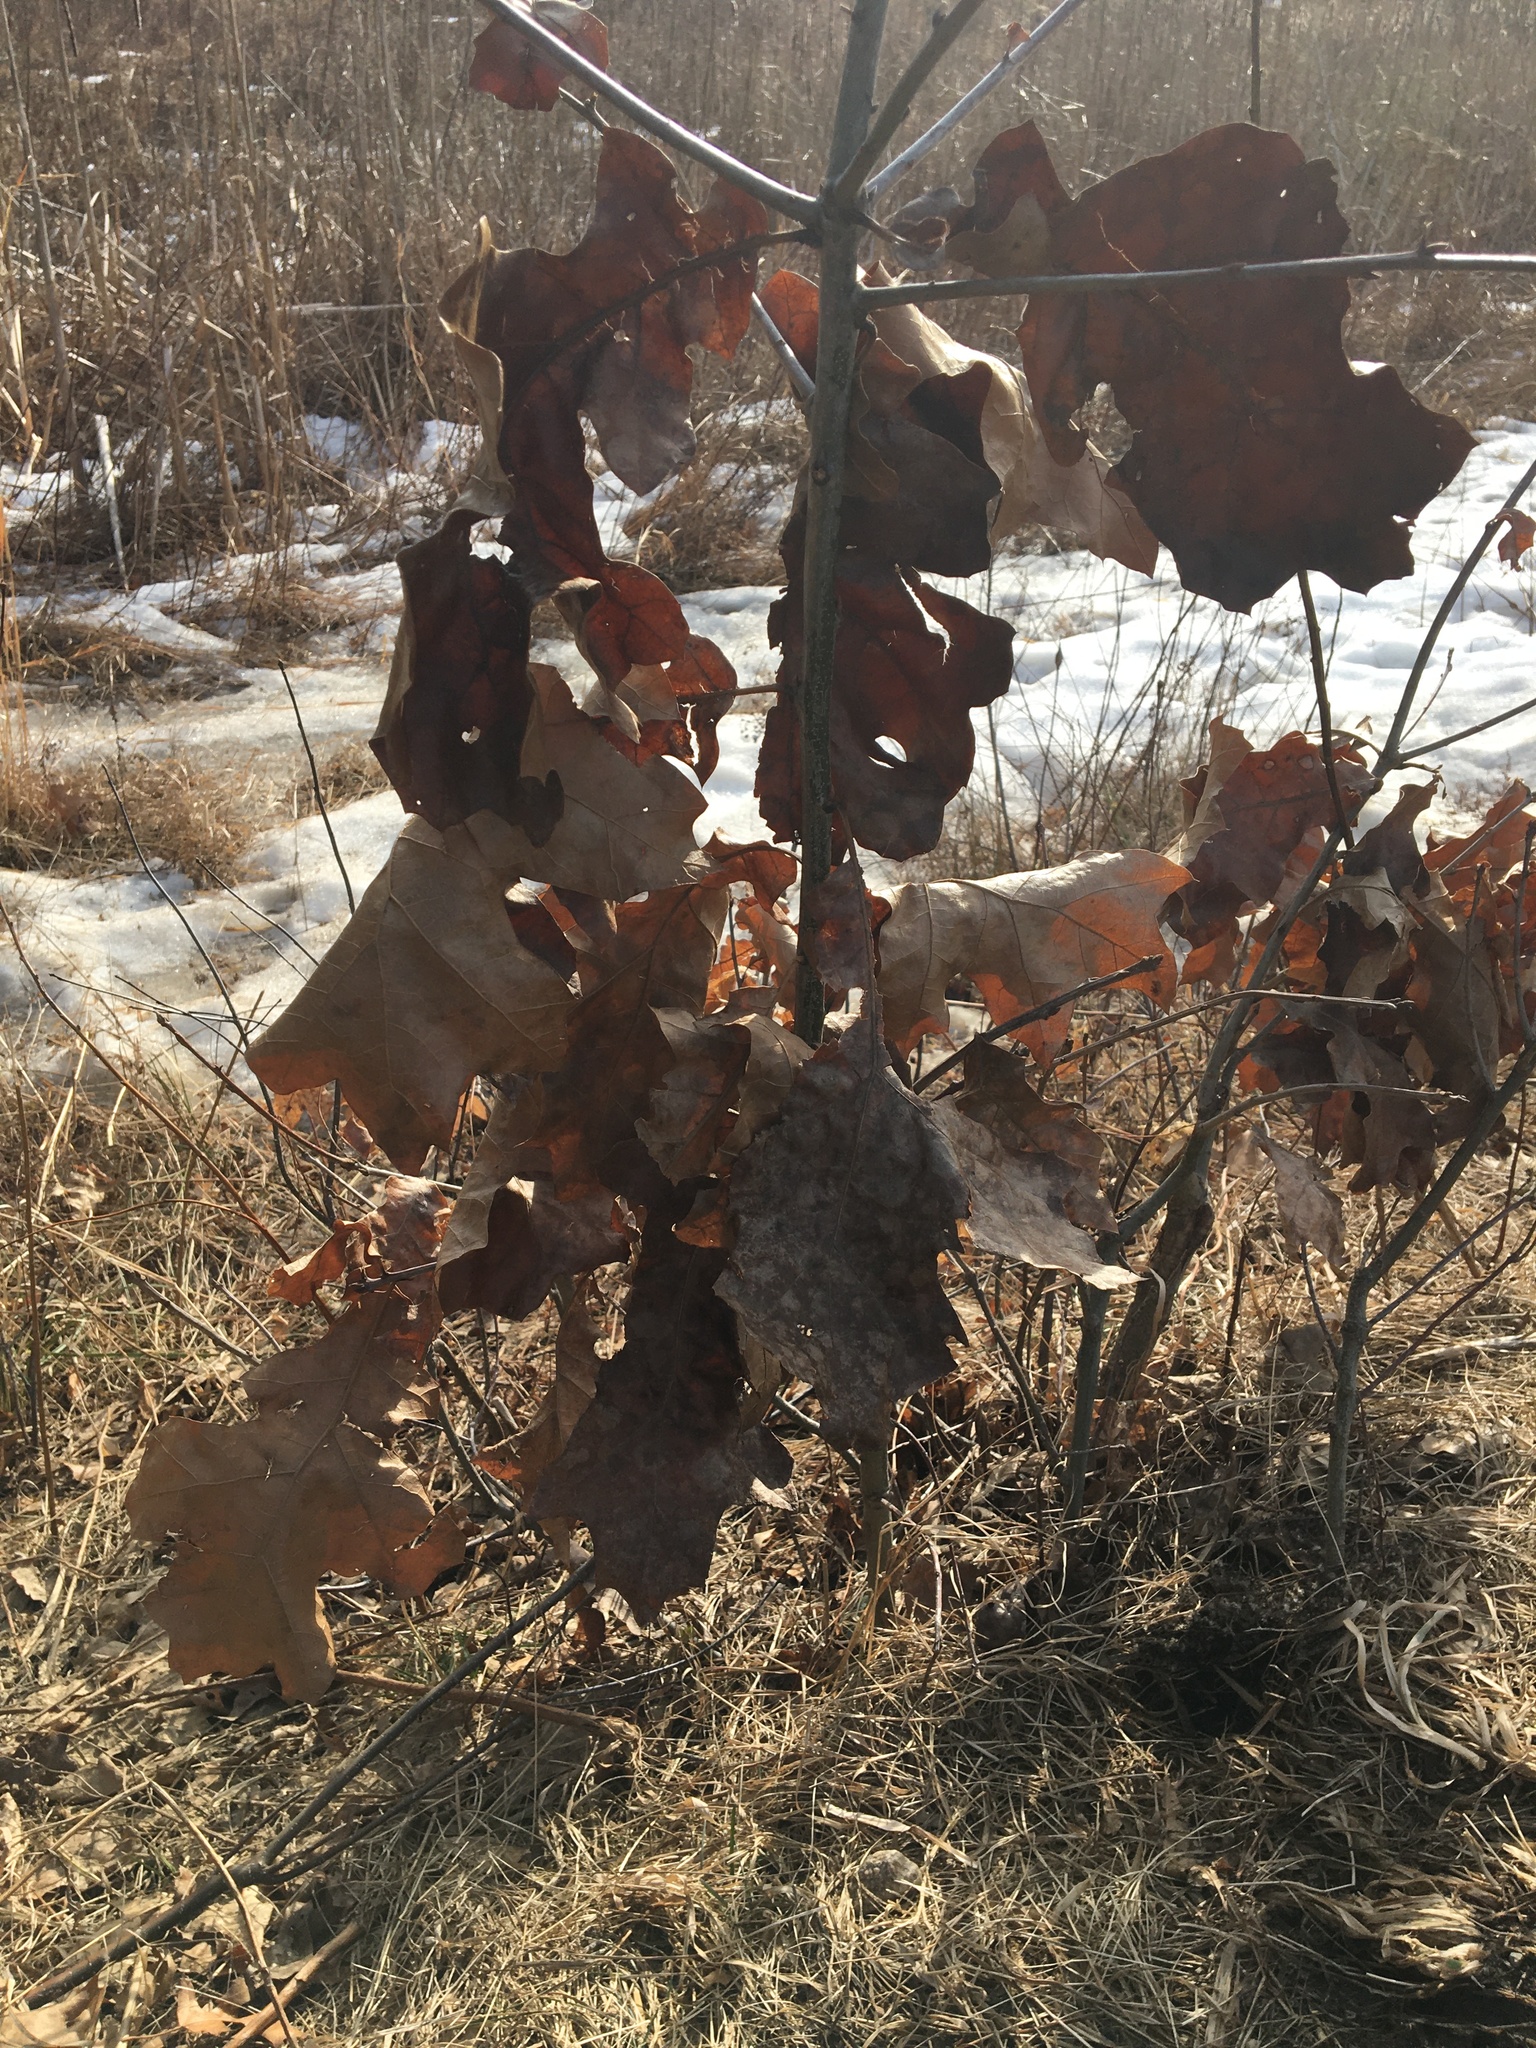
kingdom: Plantae
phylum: Tracheophyta
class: Magnoliopsida
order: Fagales
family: Fagaceae
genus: Quercus
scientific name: Quercus velutina
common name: Black oak
